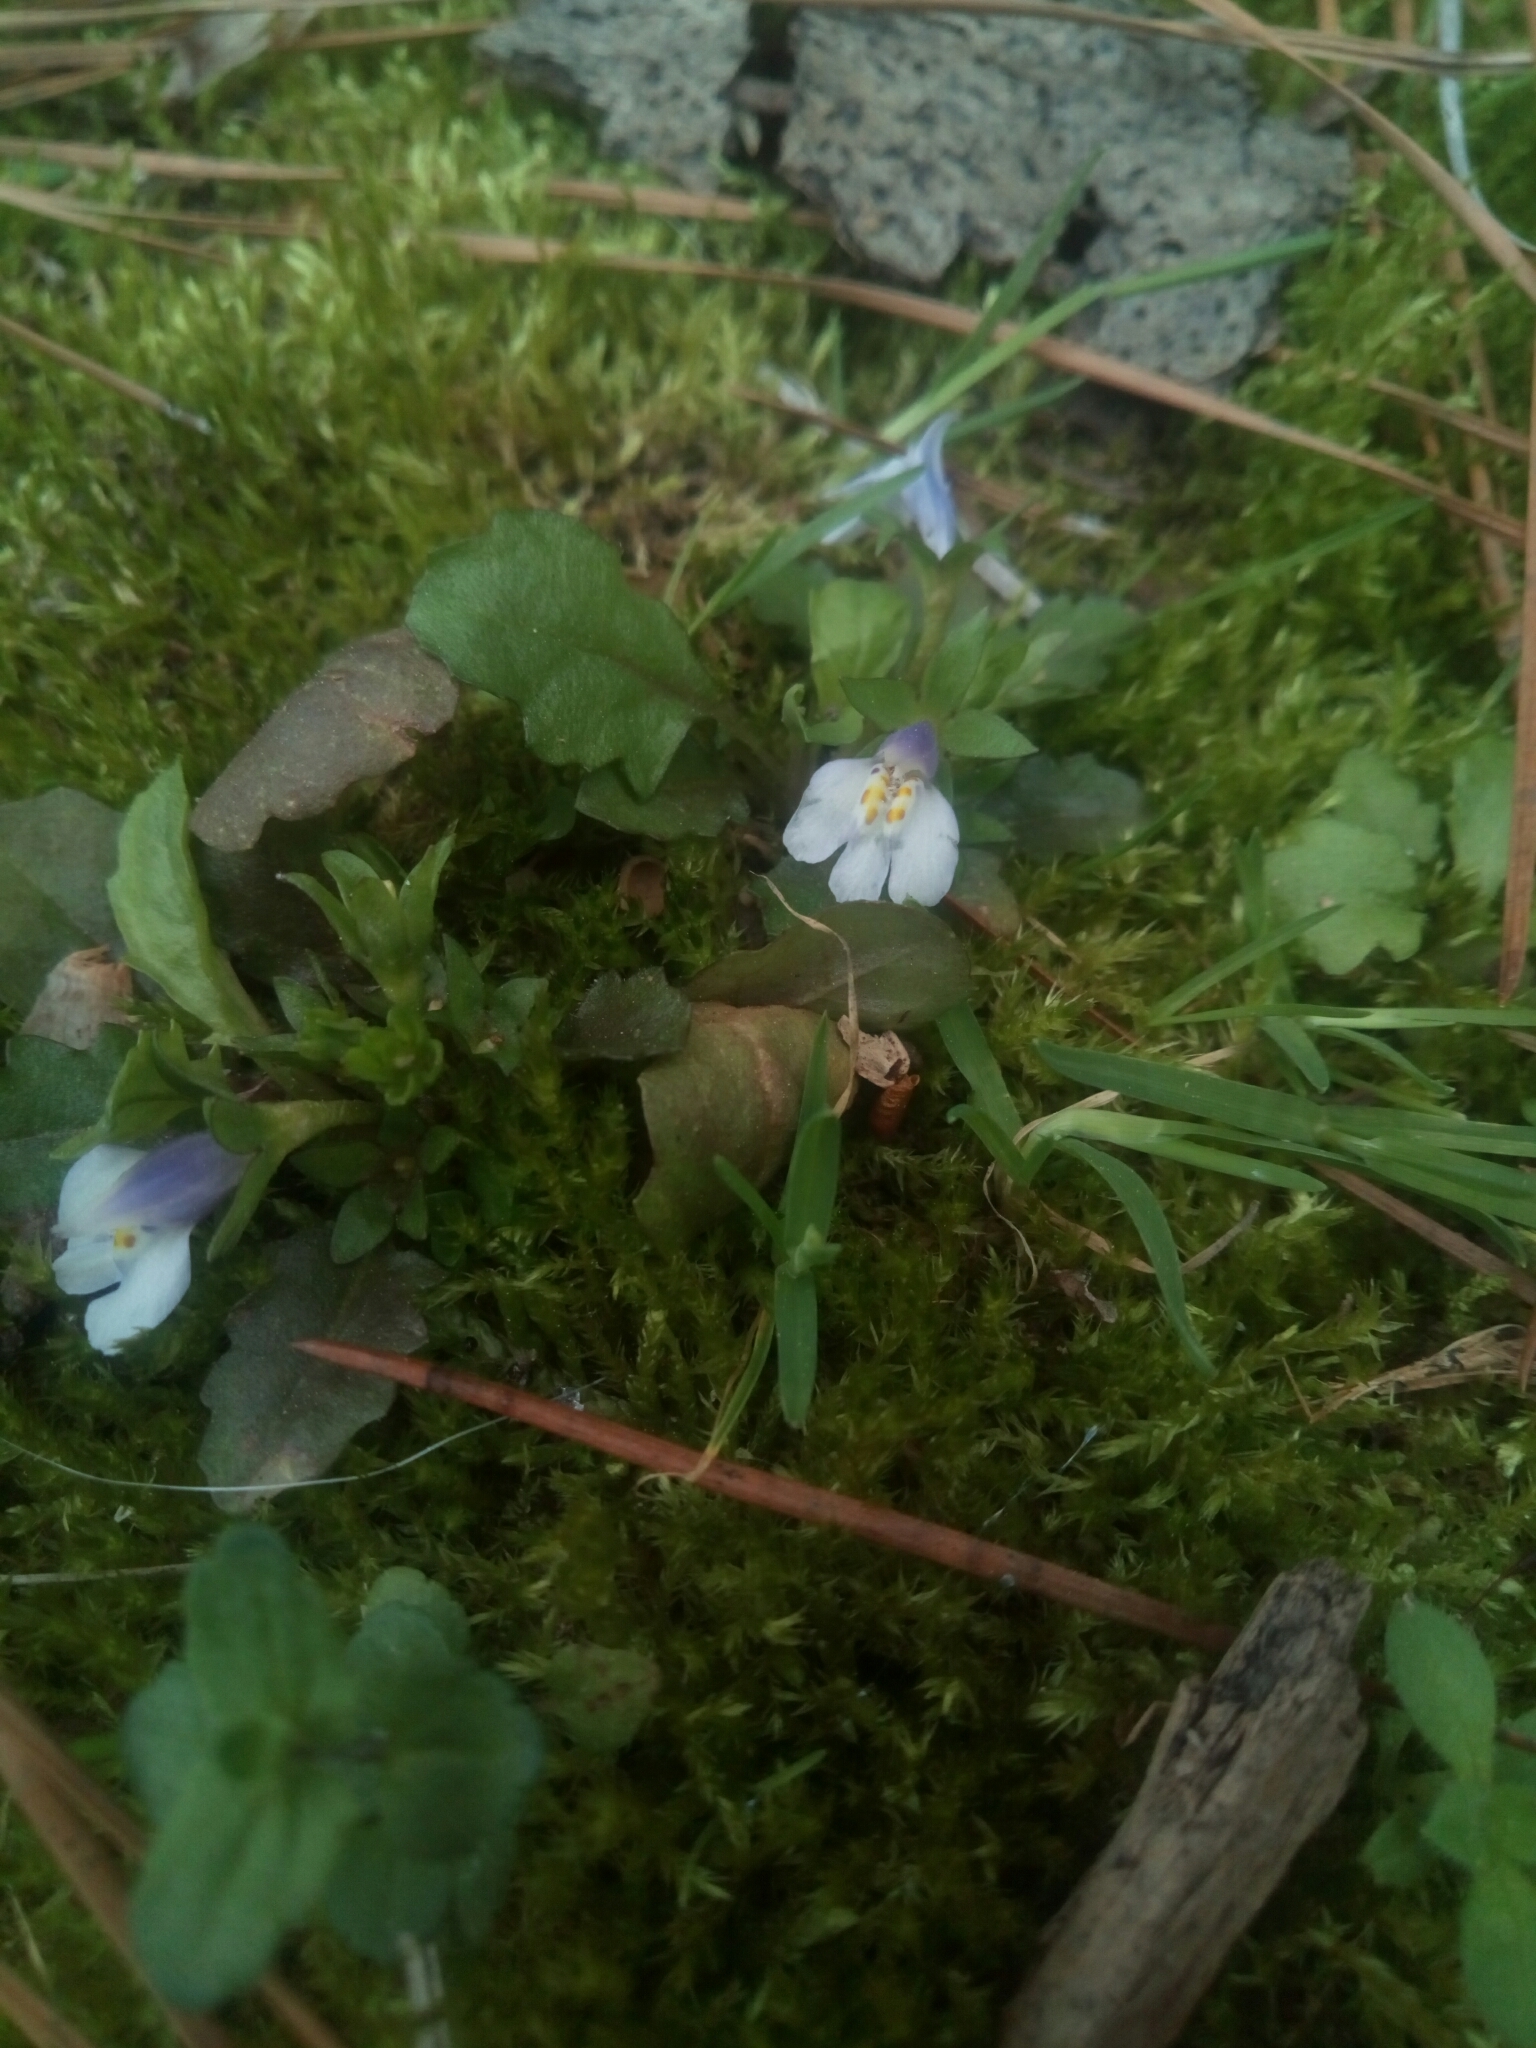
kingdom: Plantae
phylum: Tracheophyta
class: Magnoliopsida
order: Lamiales
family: Mazaceae
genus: Mazus
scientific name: Mazus pumilus
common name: Japanese mazus
